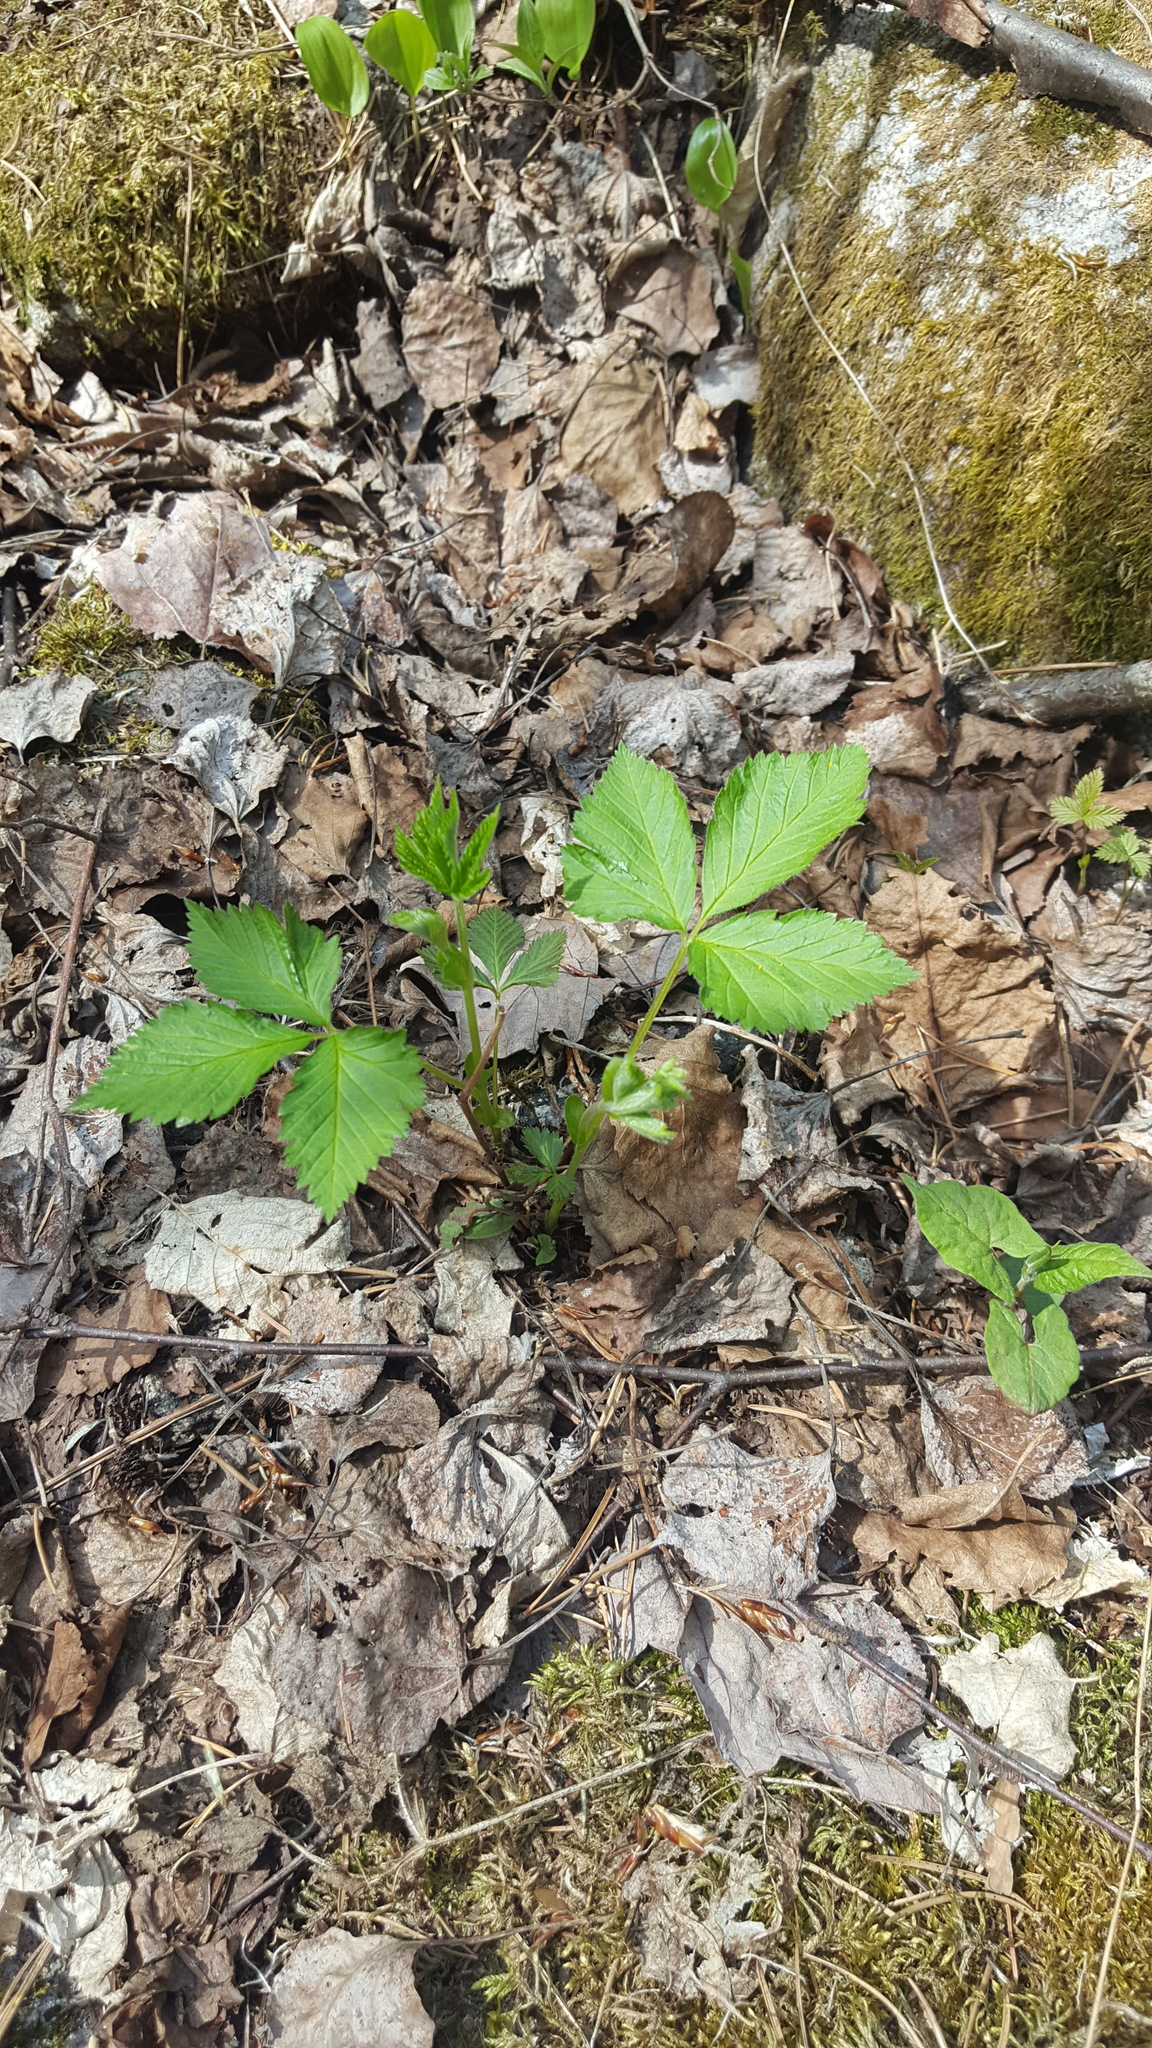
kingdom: Plantae
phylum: Tracheophyta
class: Magnoliopsida
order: Rosales
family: Rosaceae
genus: Rubus
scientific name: Rubus pubescens
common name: Dwarf raspberry
